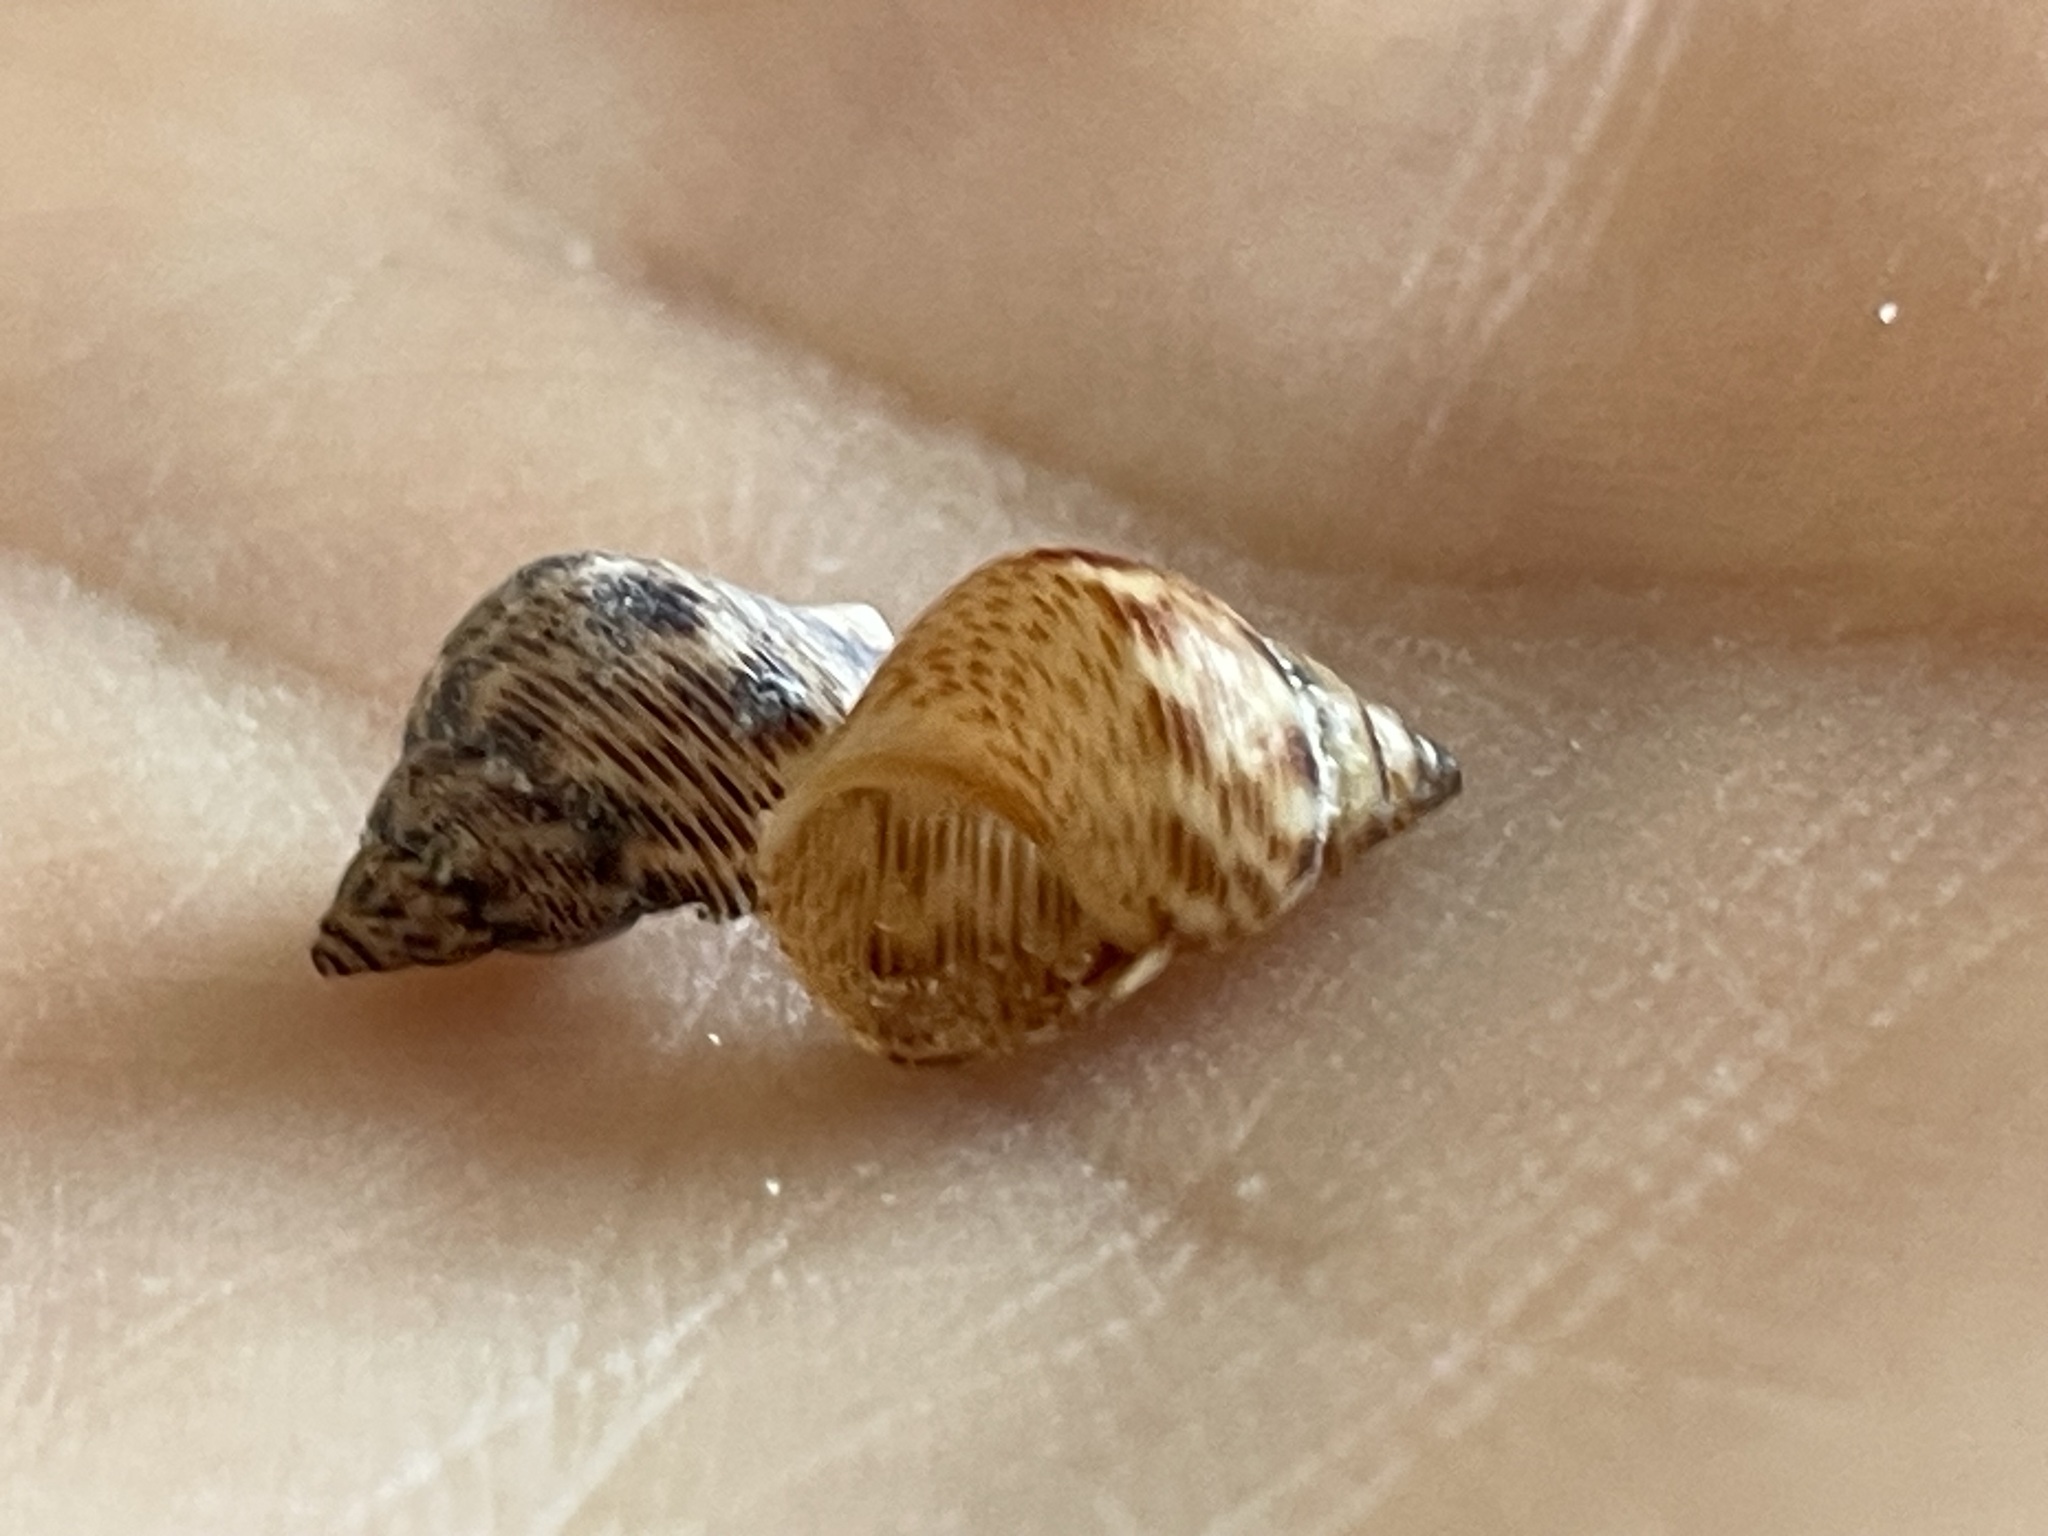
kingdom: Animalia
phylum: Mollusca
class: Gastropoda
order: Littorinimorpha
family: Littorinidae
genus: Littoraria
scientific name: Littoraria angulifera
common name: Mangrove periwinkle
